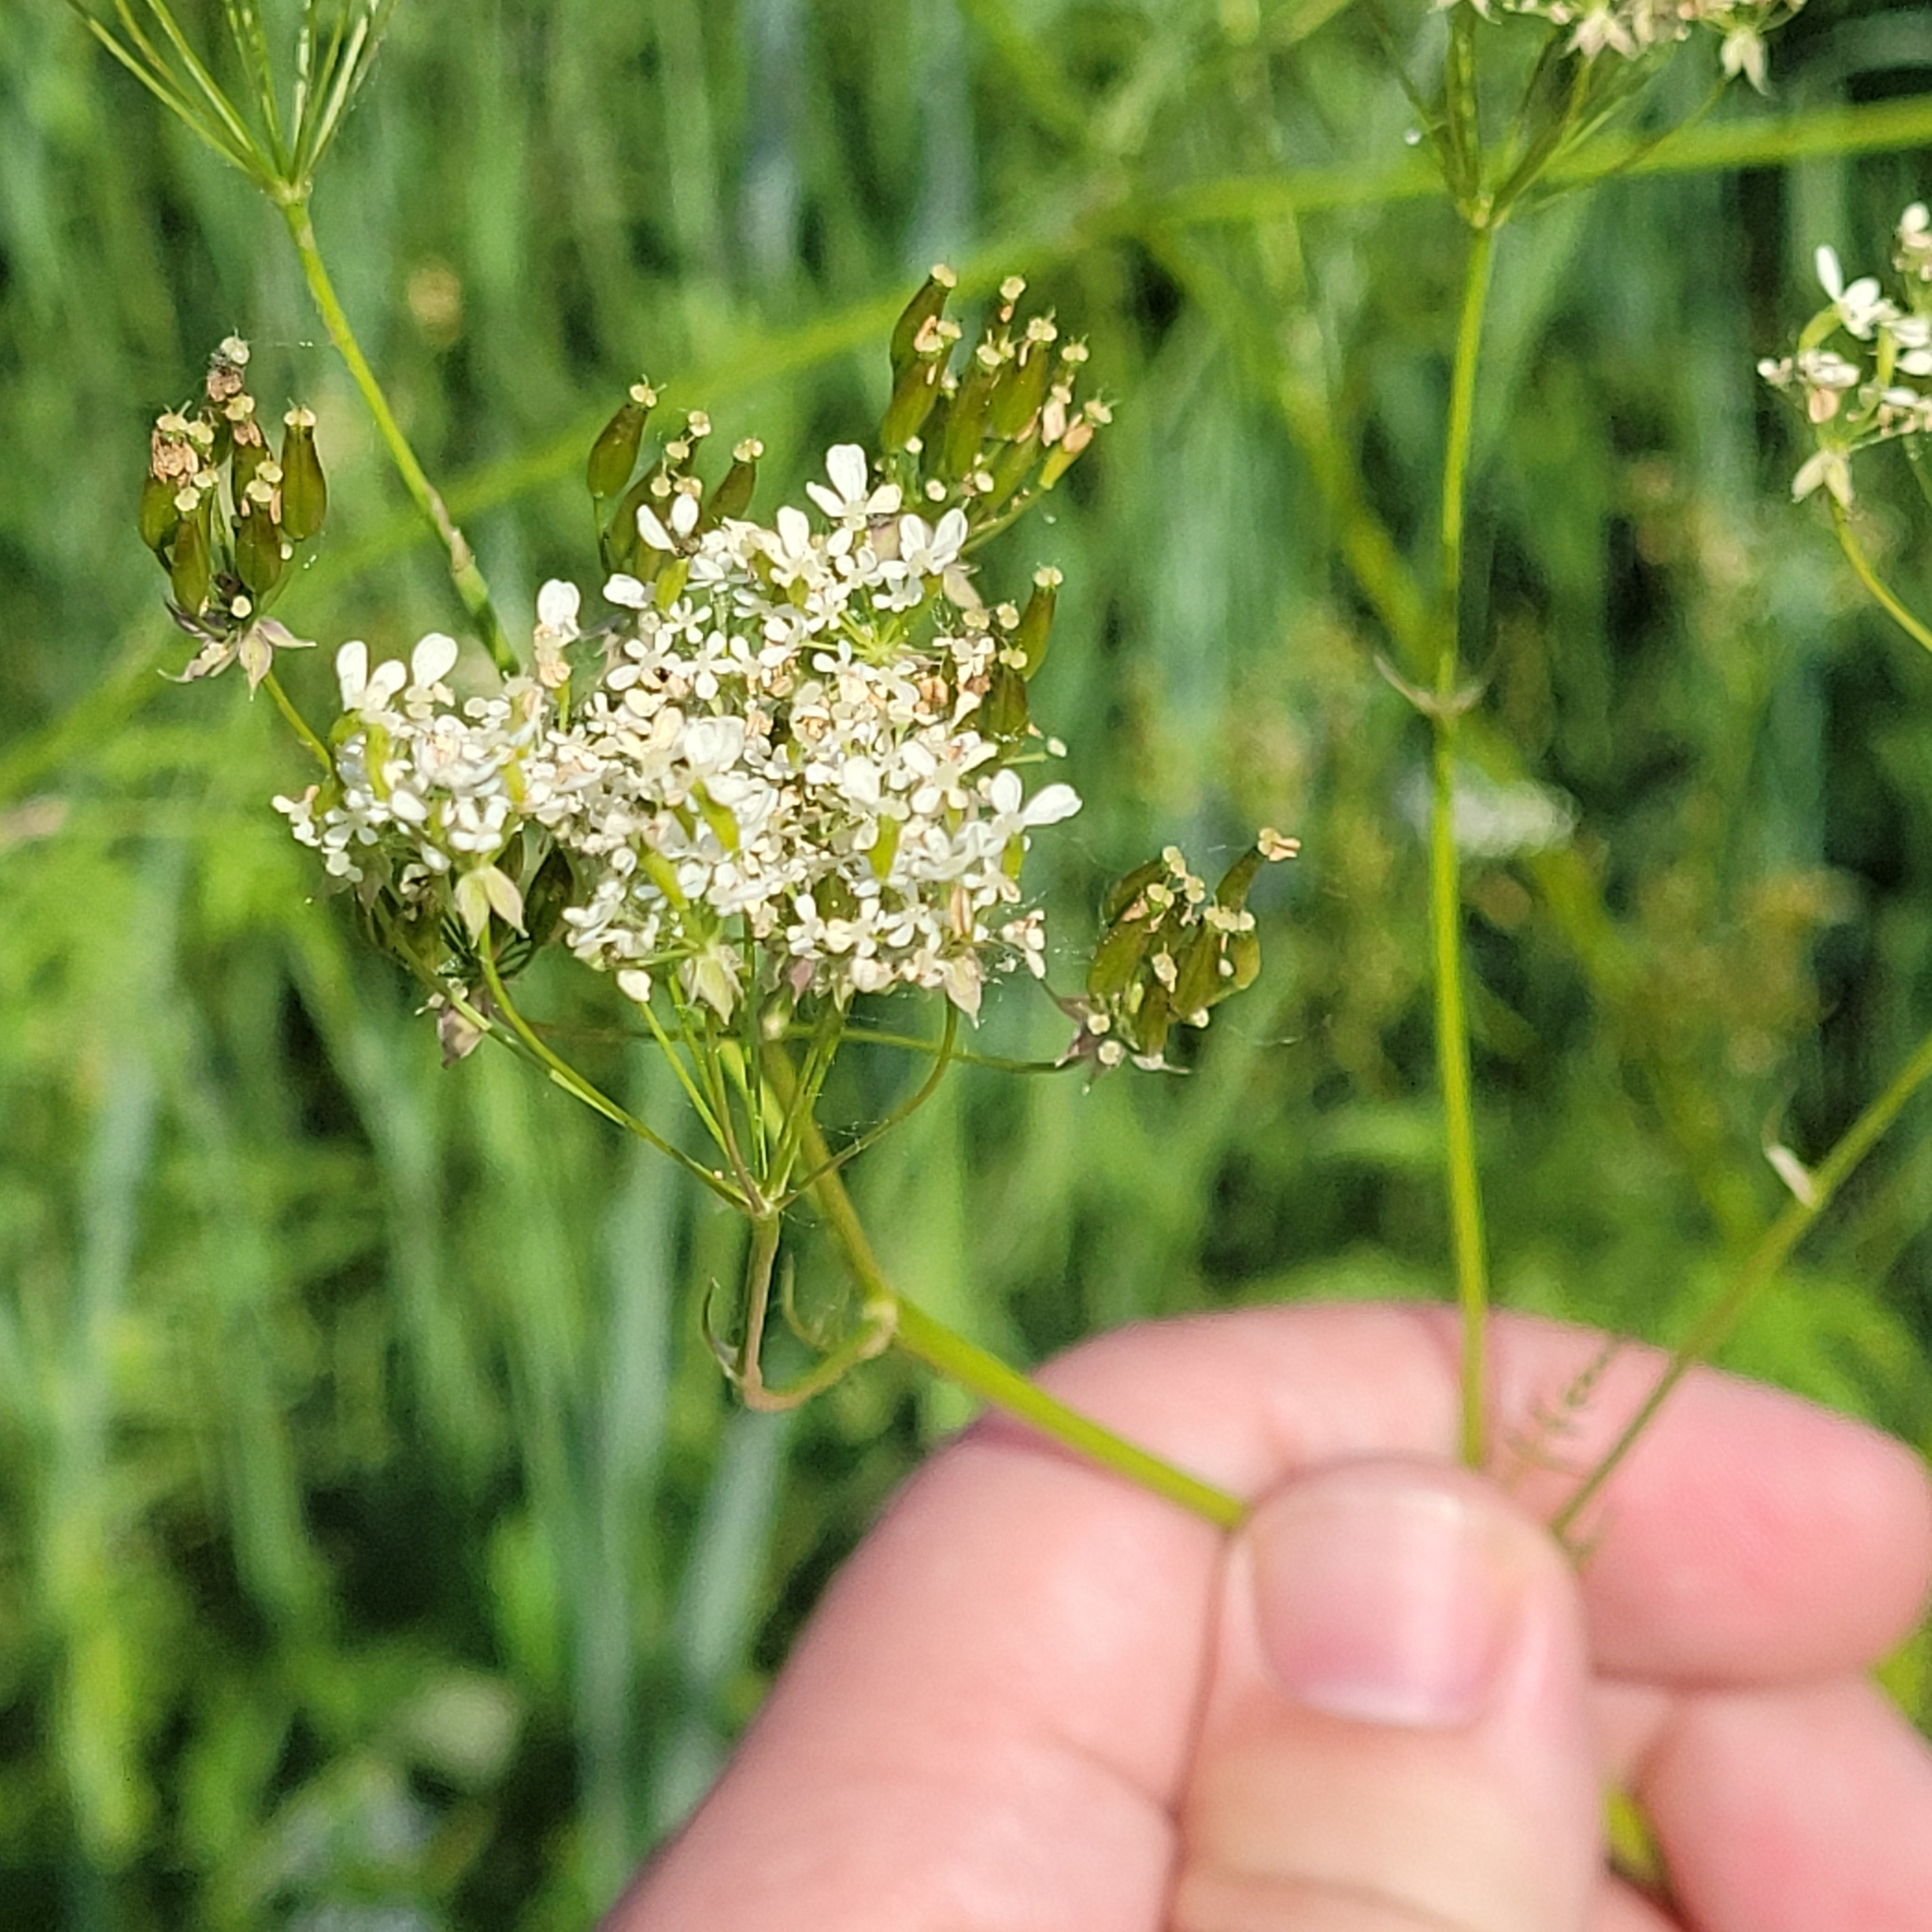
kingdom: Plantae
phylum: Tracheophyta
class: Magnoliopsida
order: Apiales
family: Apiaceae
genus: Anthriscus
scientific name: Anthriscus sylvestris
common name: Cow parsley
